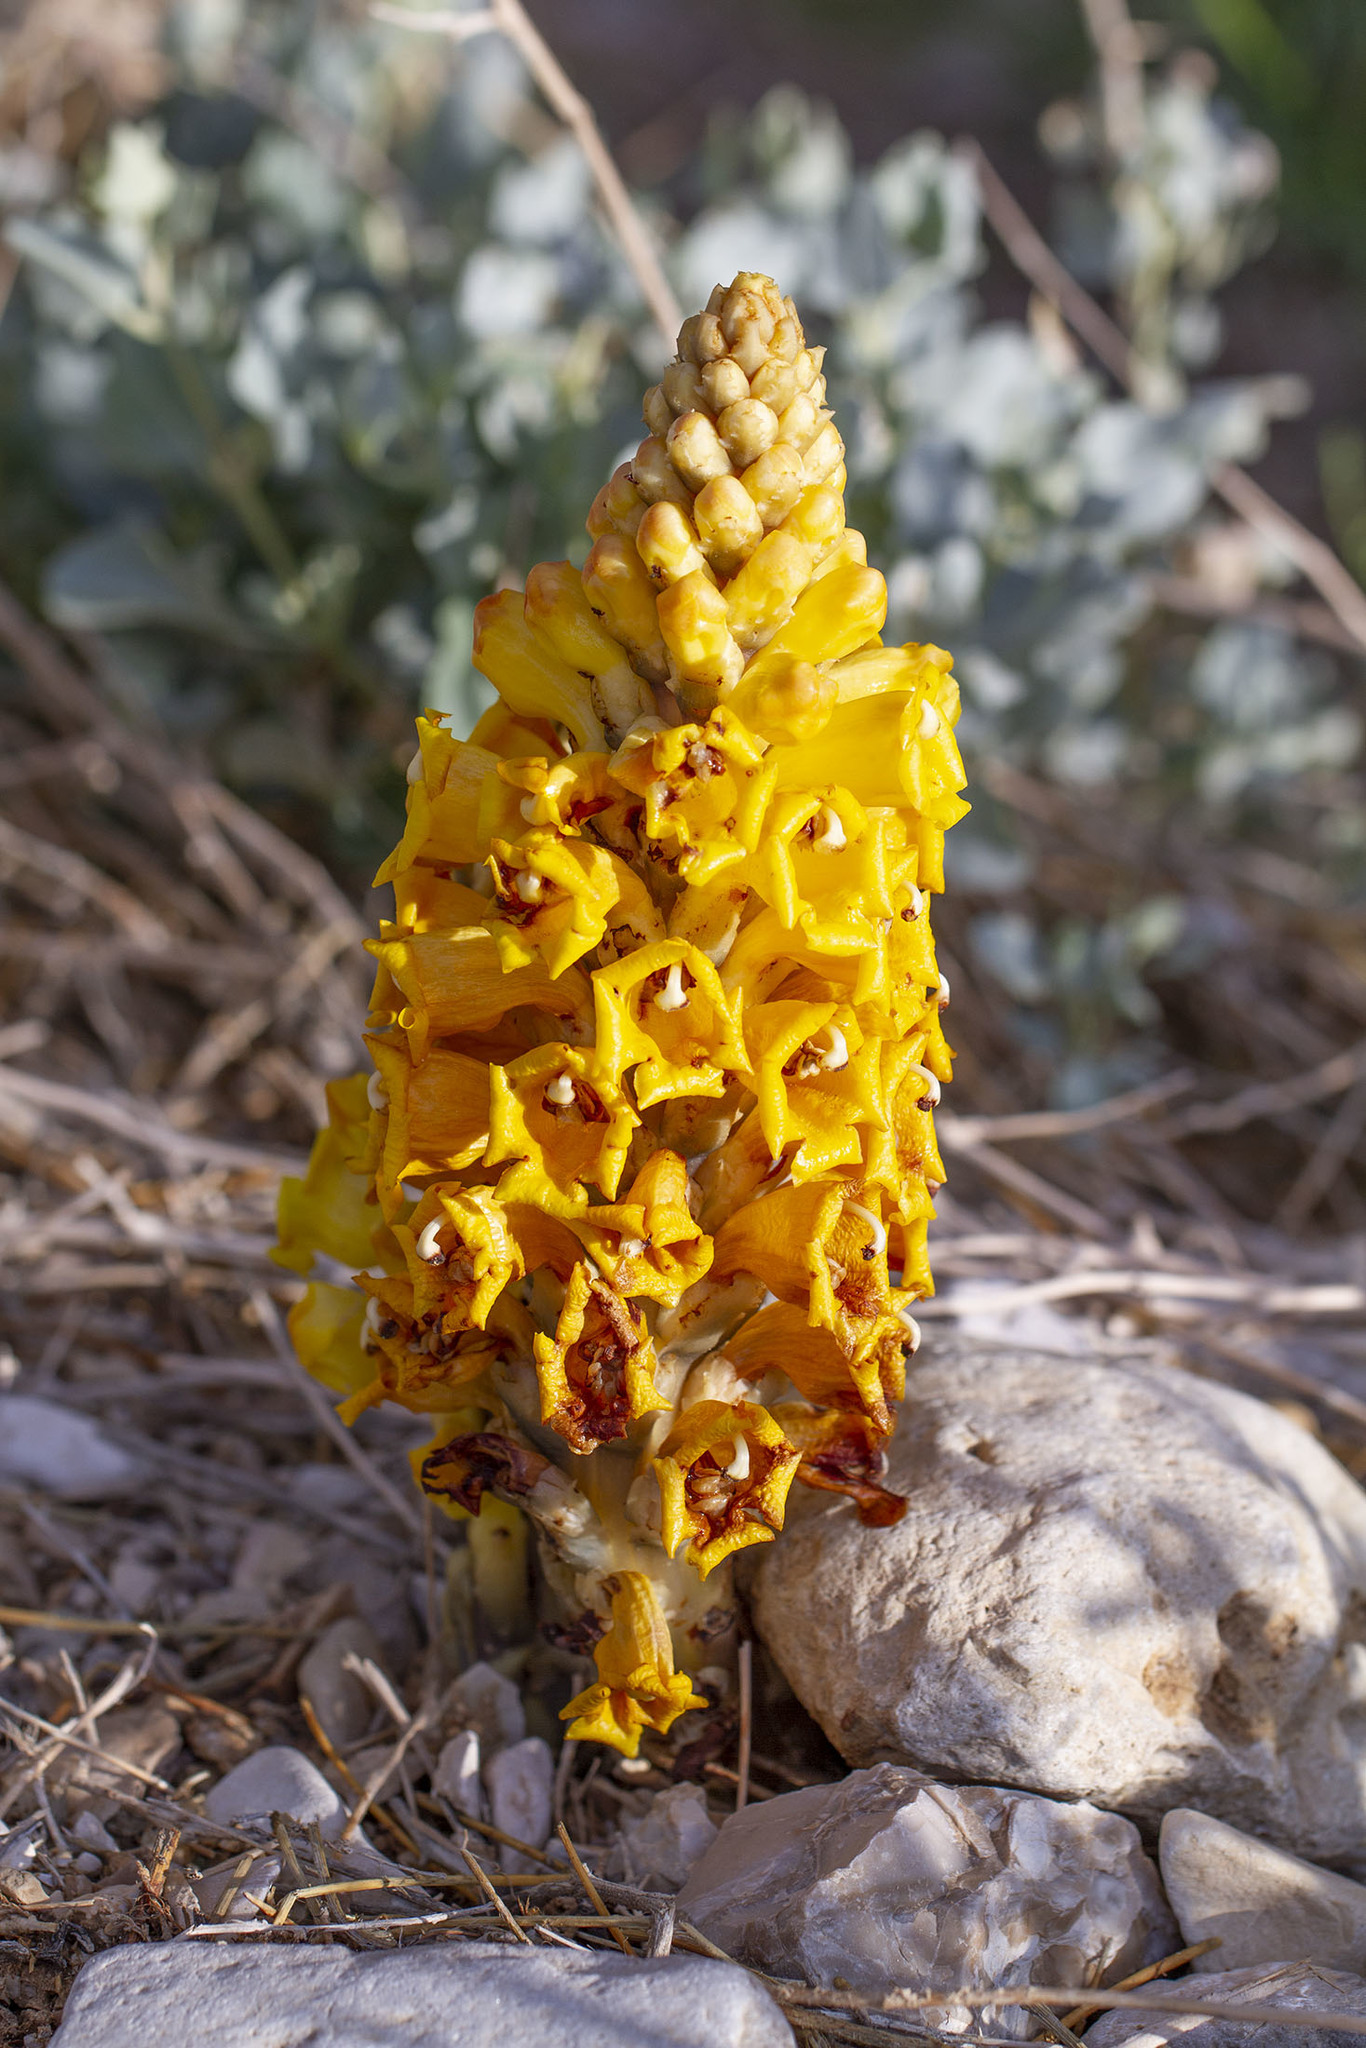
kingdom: Plantae
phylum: Tracheophyta
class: Magnoliopsida
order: Lamiales
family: Orobanchaceae
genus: Cistanche
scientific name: Cistanche tubulosa
